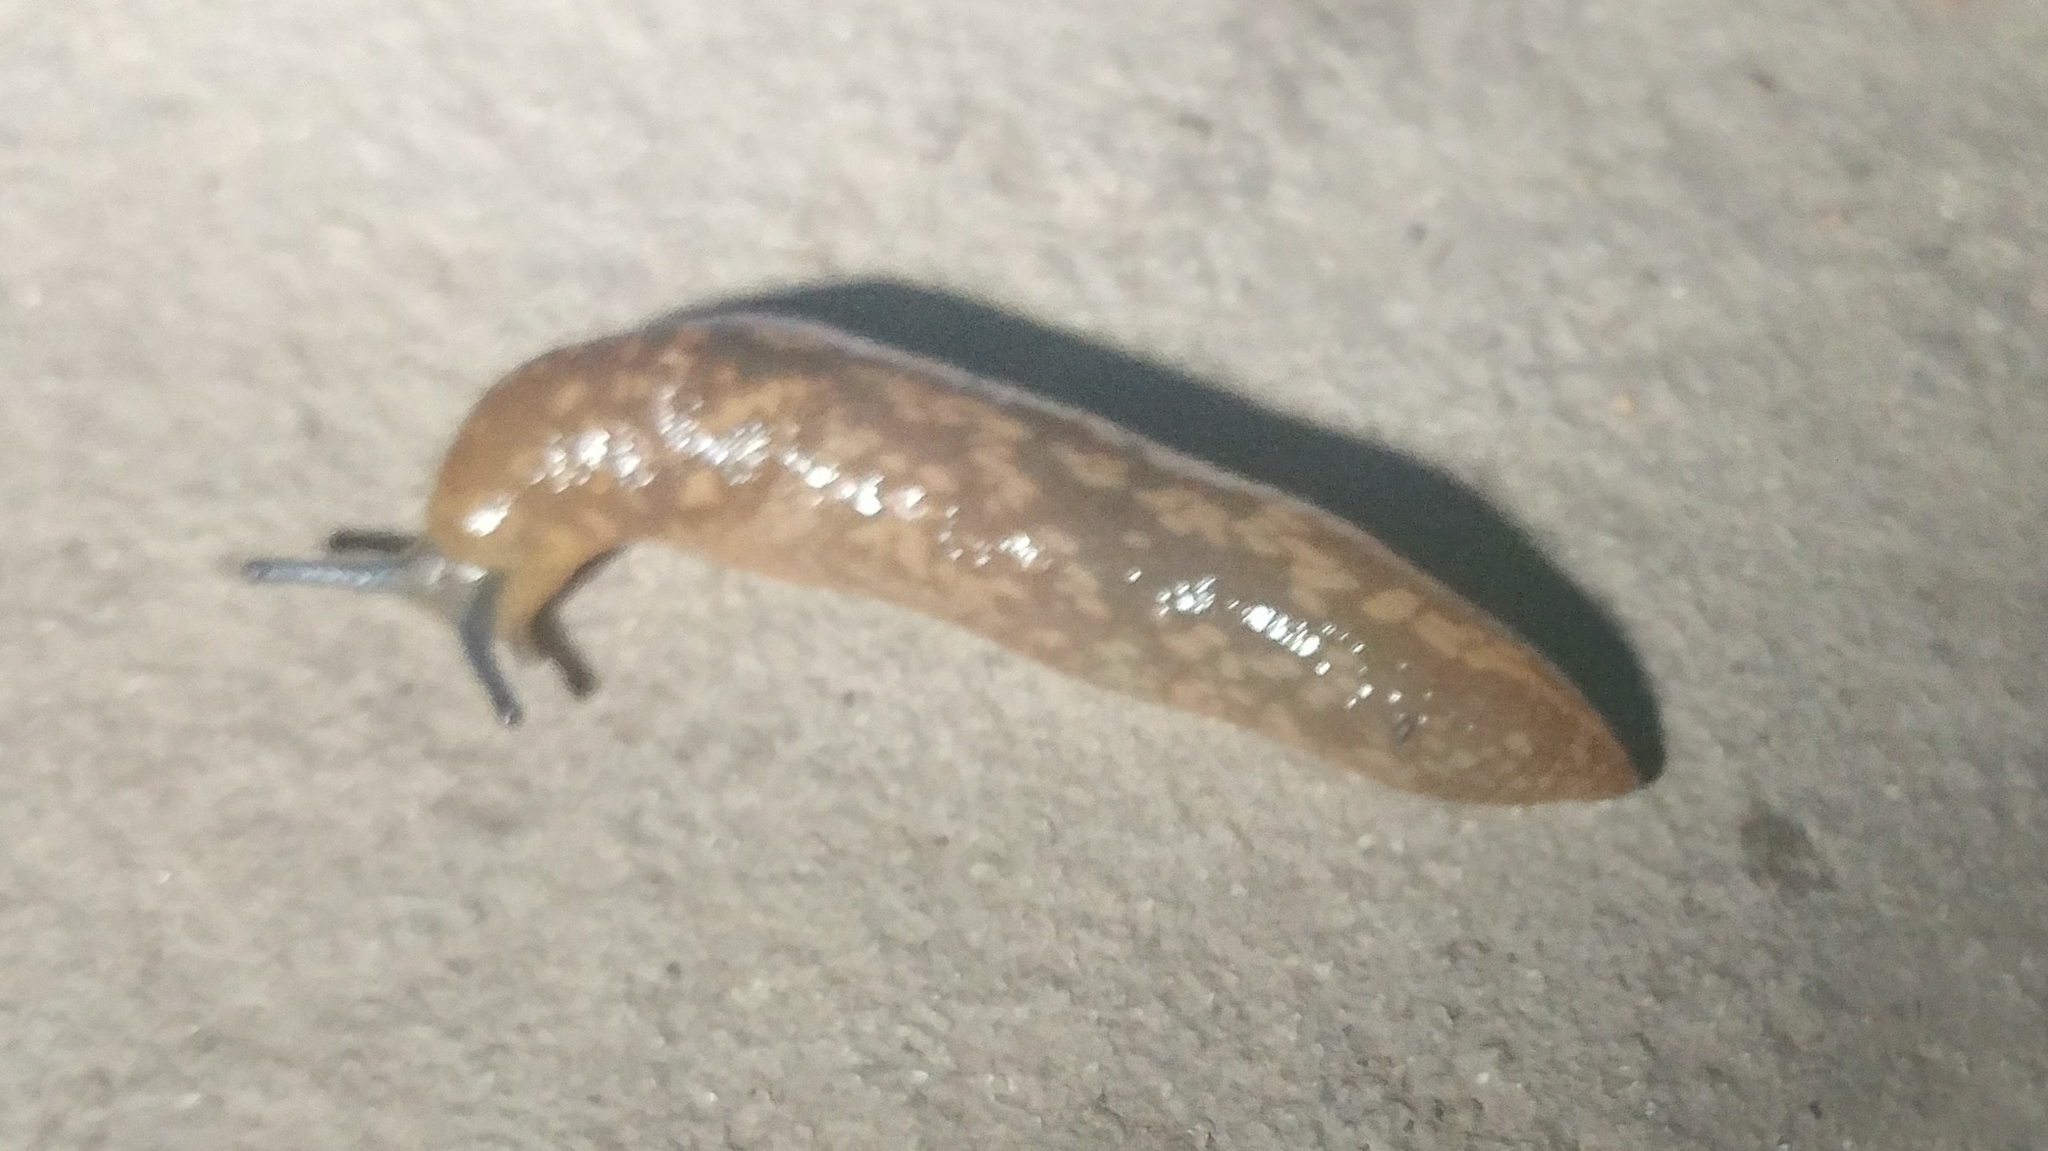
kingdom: Animalia
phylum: Mollusca
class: Gastropoda
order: Stylommatophora
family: Limacidae
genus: Limacus
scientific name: Limacus flavus
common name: Yellow gardenslug
